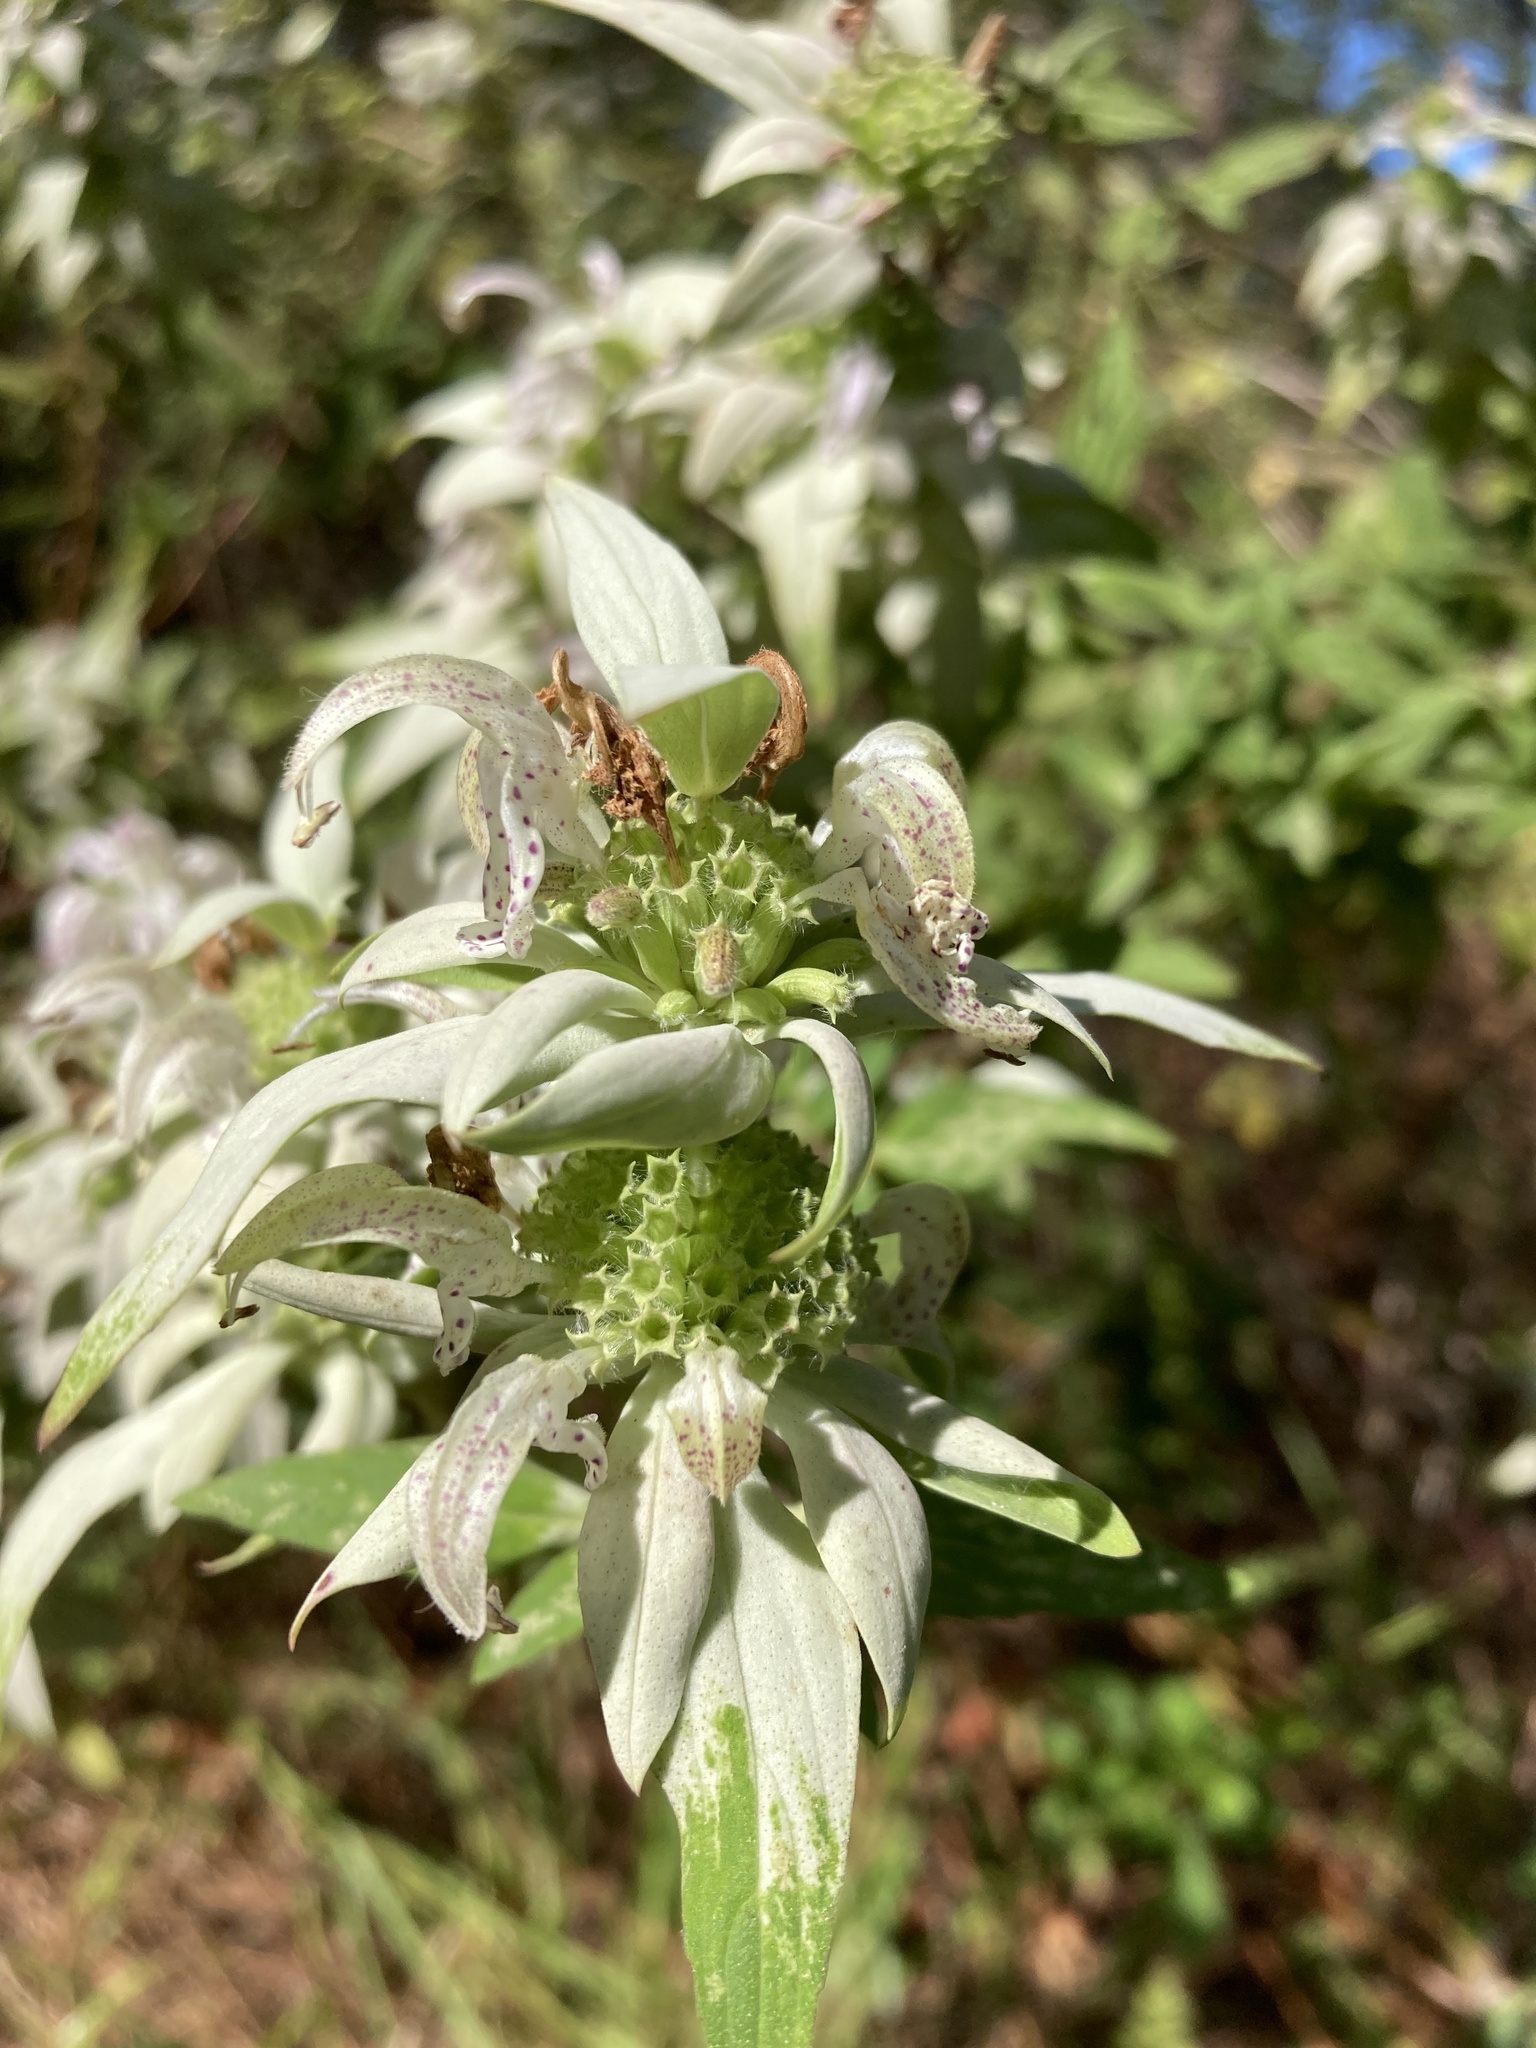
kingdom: Plantae
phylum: Tracheophyta
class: Magnoliopsida
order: Lamiales
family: Lamiaceae
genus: Monarda
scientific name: Monarda punctata
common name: Dotted monarda
